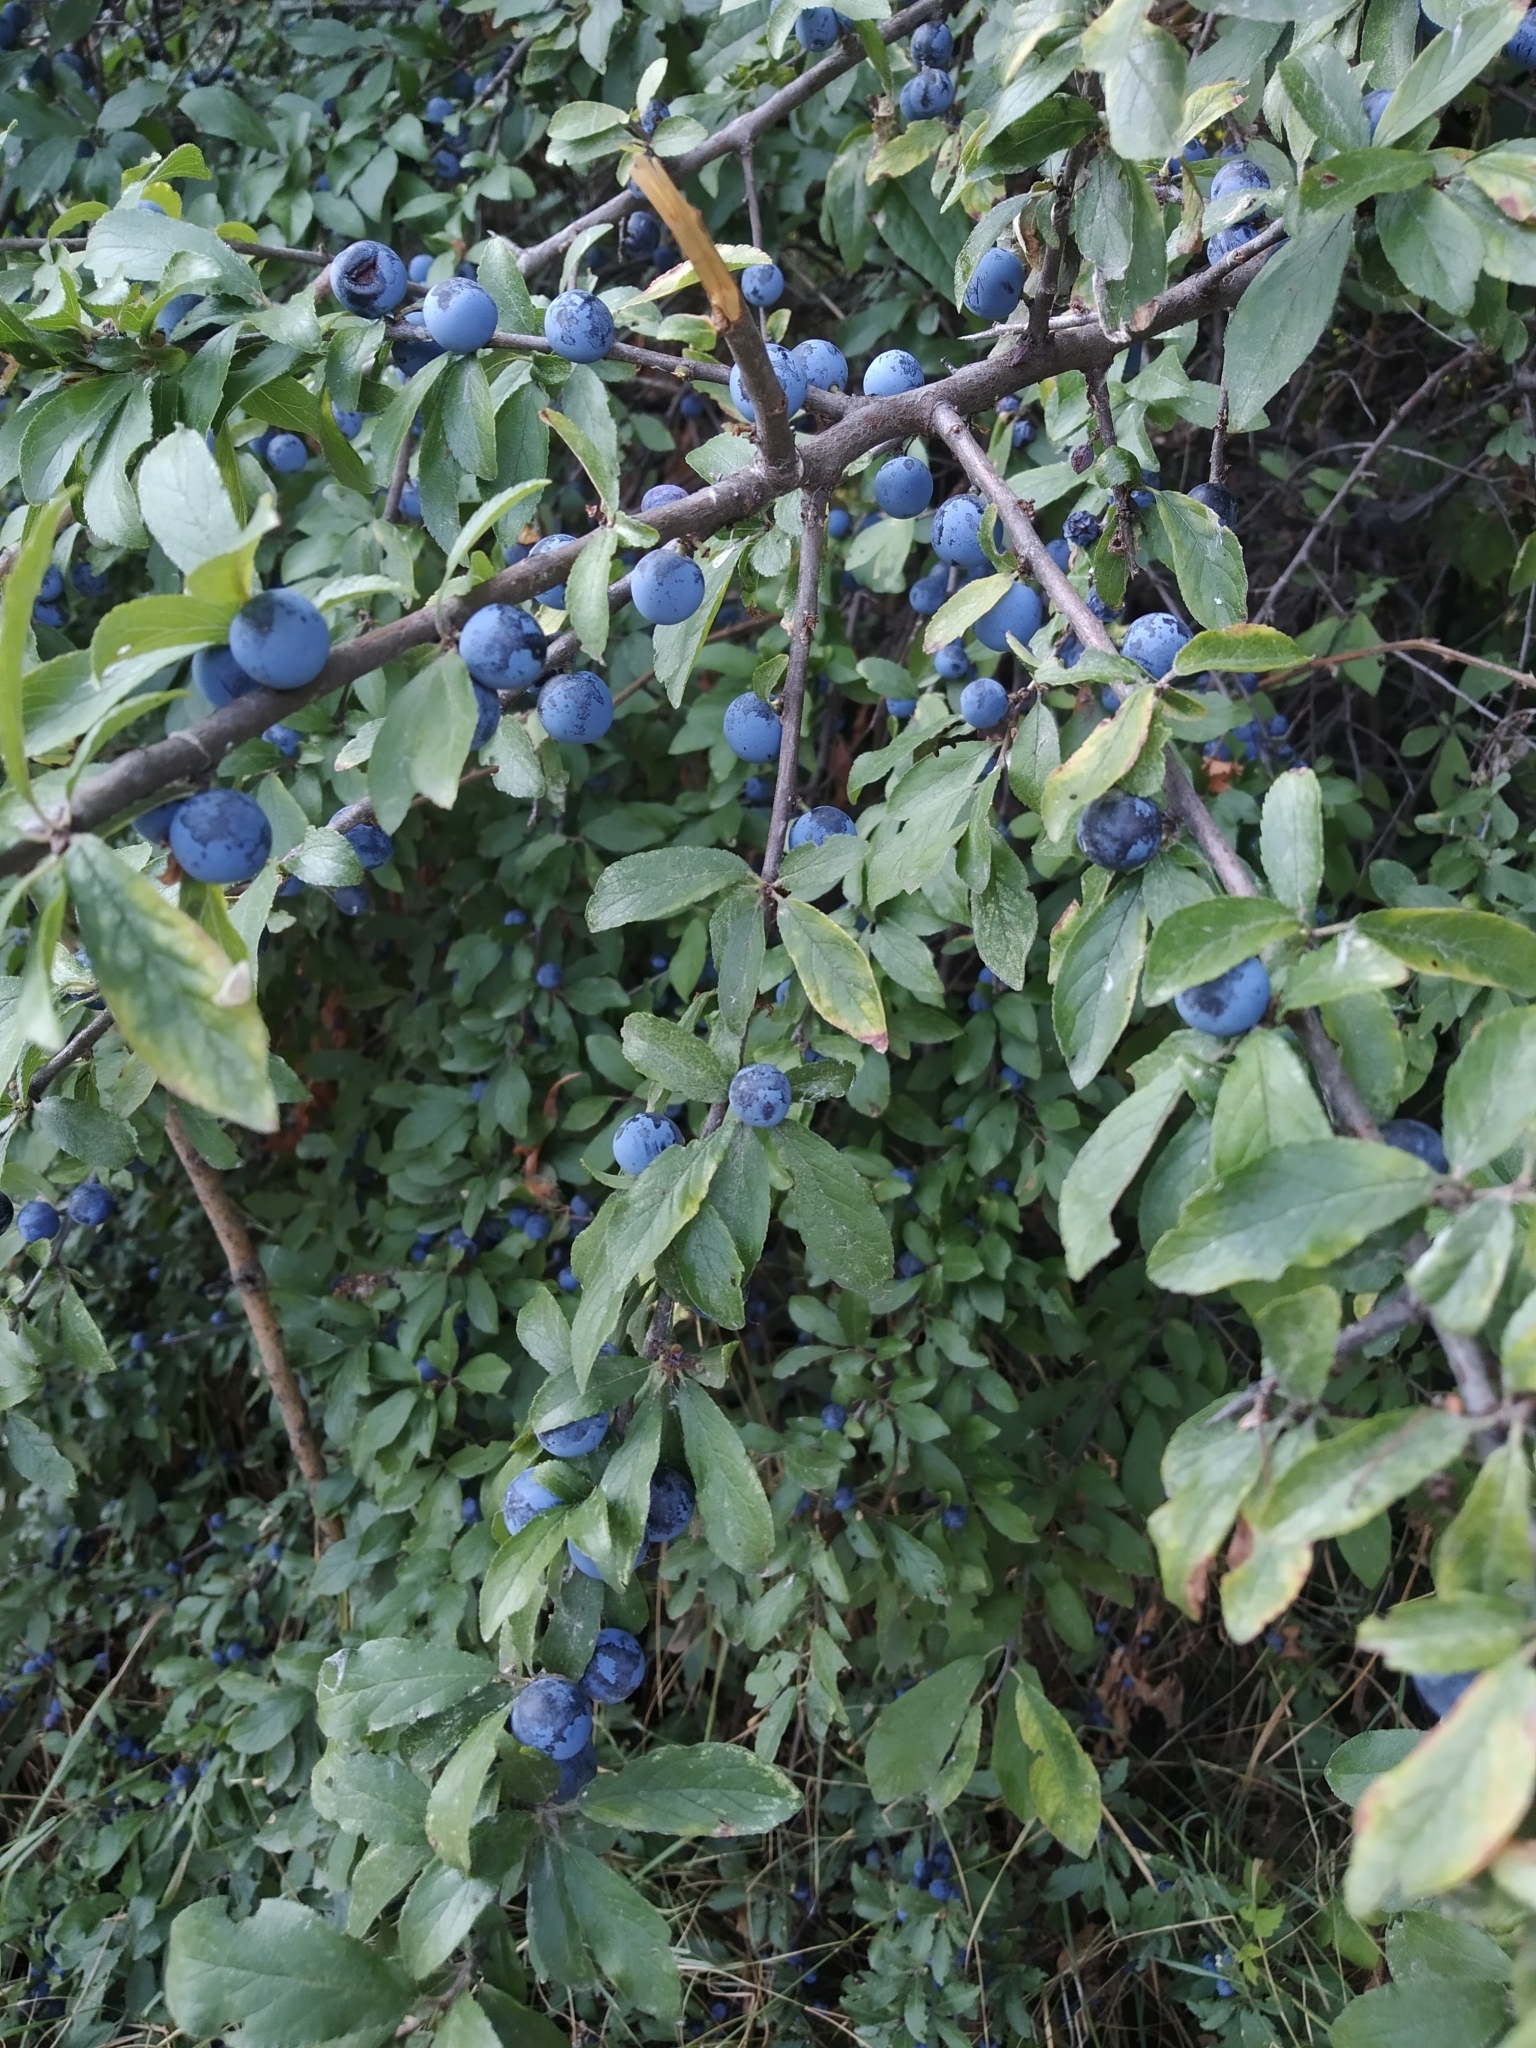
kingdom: Plantae
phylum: Tracheophyta
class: Magnoliopsida
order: Rosales
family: Rosaceae
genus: Prunus
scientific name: Prunus spinosa
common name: Blackthorn
